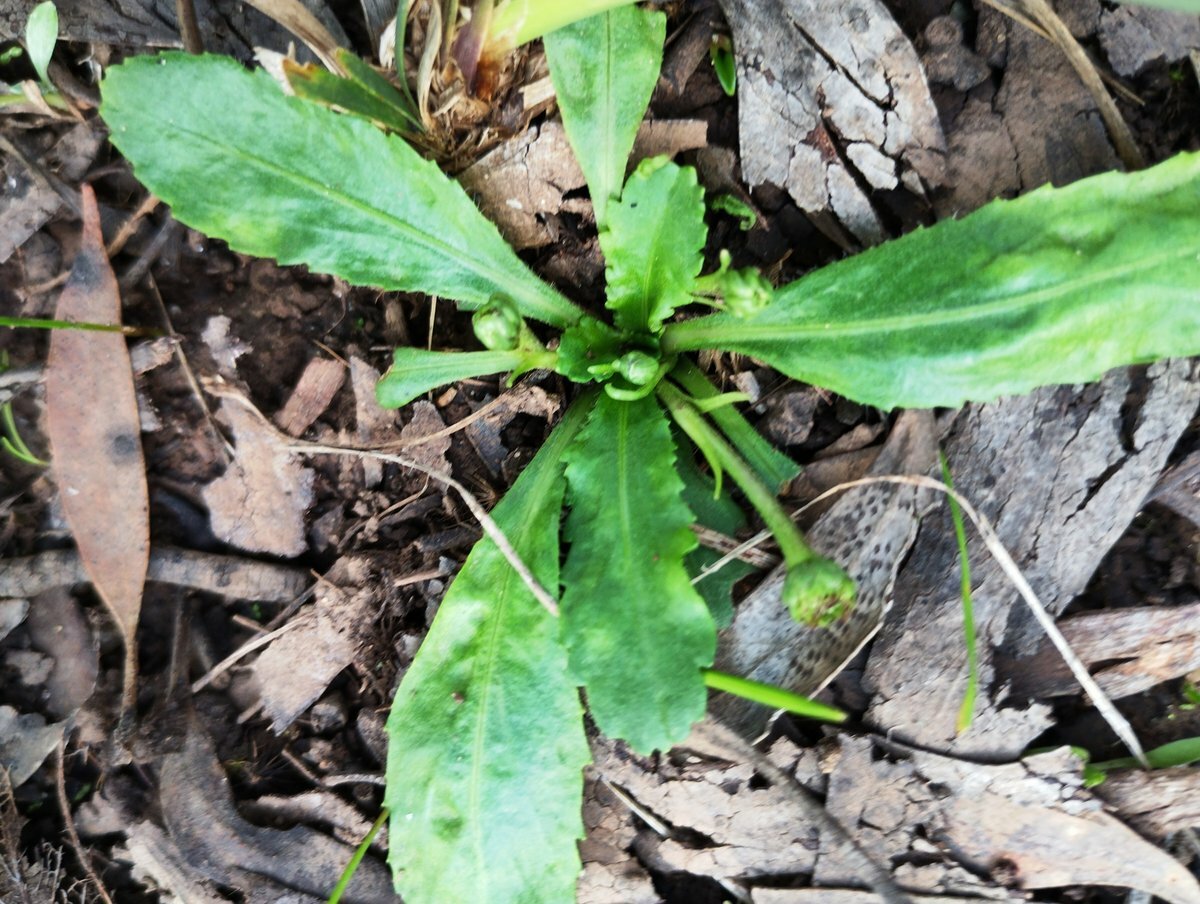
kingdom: Plantae
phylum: Tracheophyta
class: Magnoliopsida
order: Asterales
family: Asteraceae
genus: Solenogyne
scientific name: Solenogyne dominii
